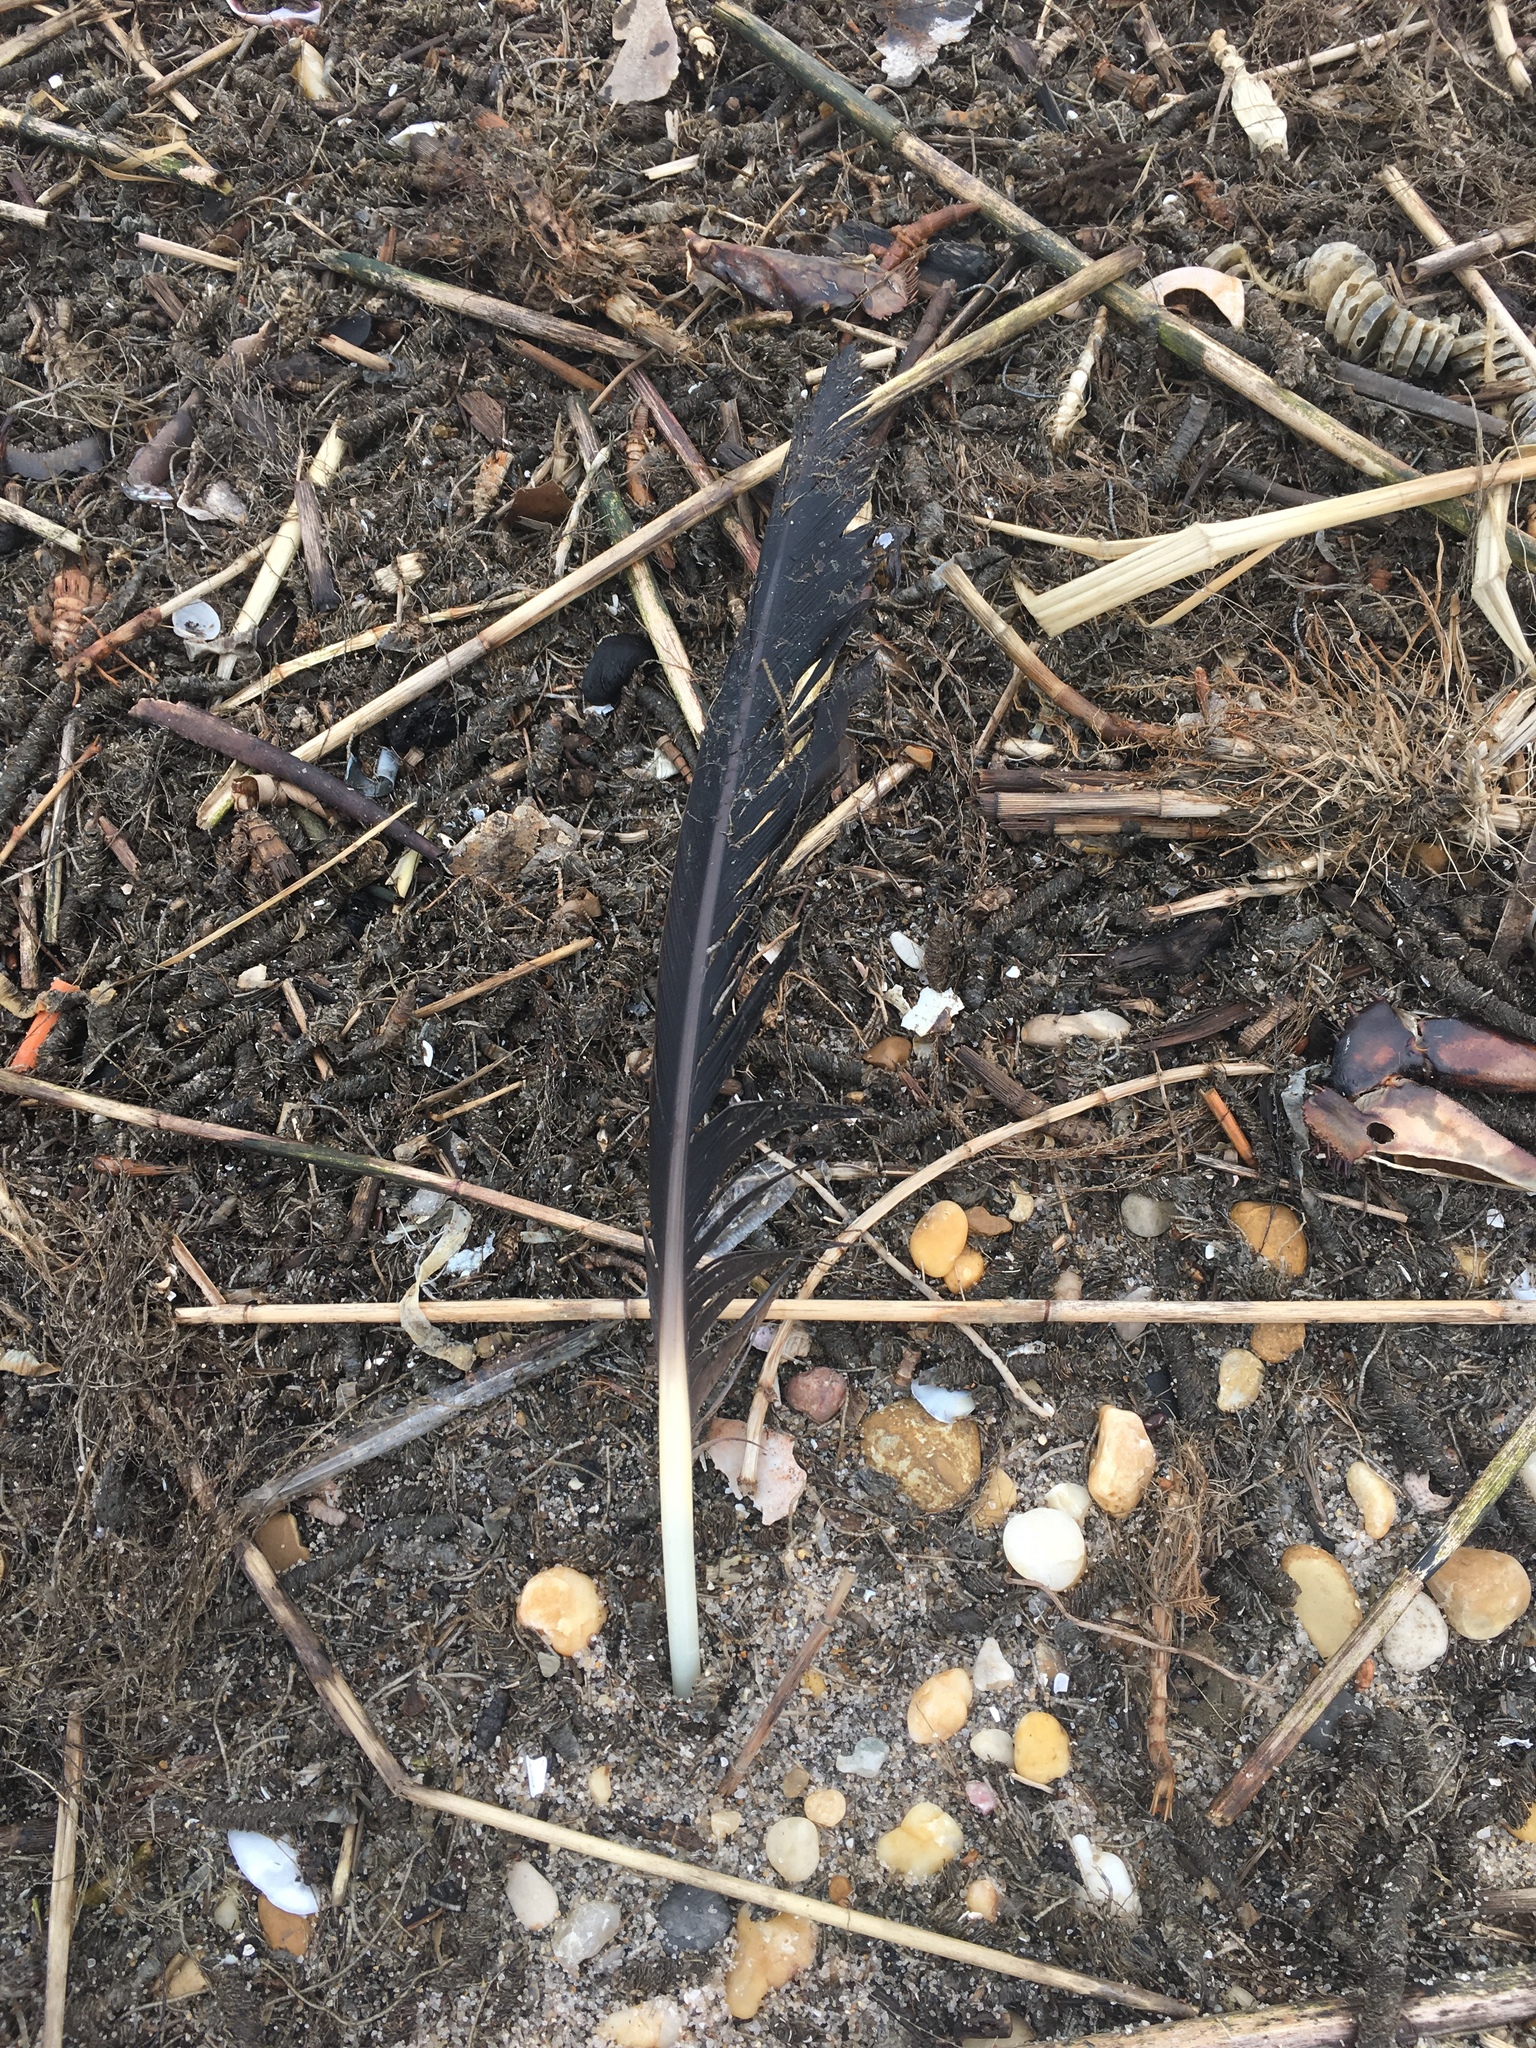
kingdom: Animalia
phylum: Chordata
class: Aves
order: Anseriformes
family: Anatidae
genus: Branta
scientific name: Branta canadensis
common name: Canada goose
